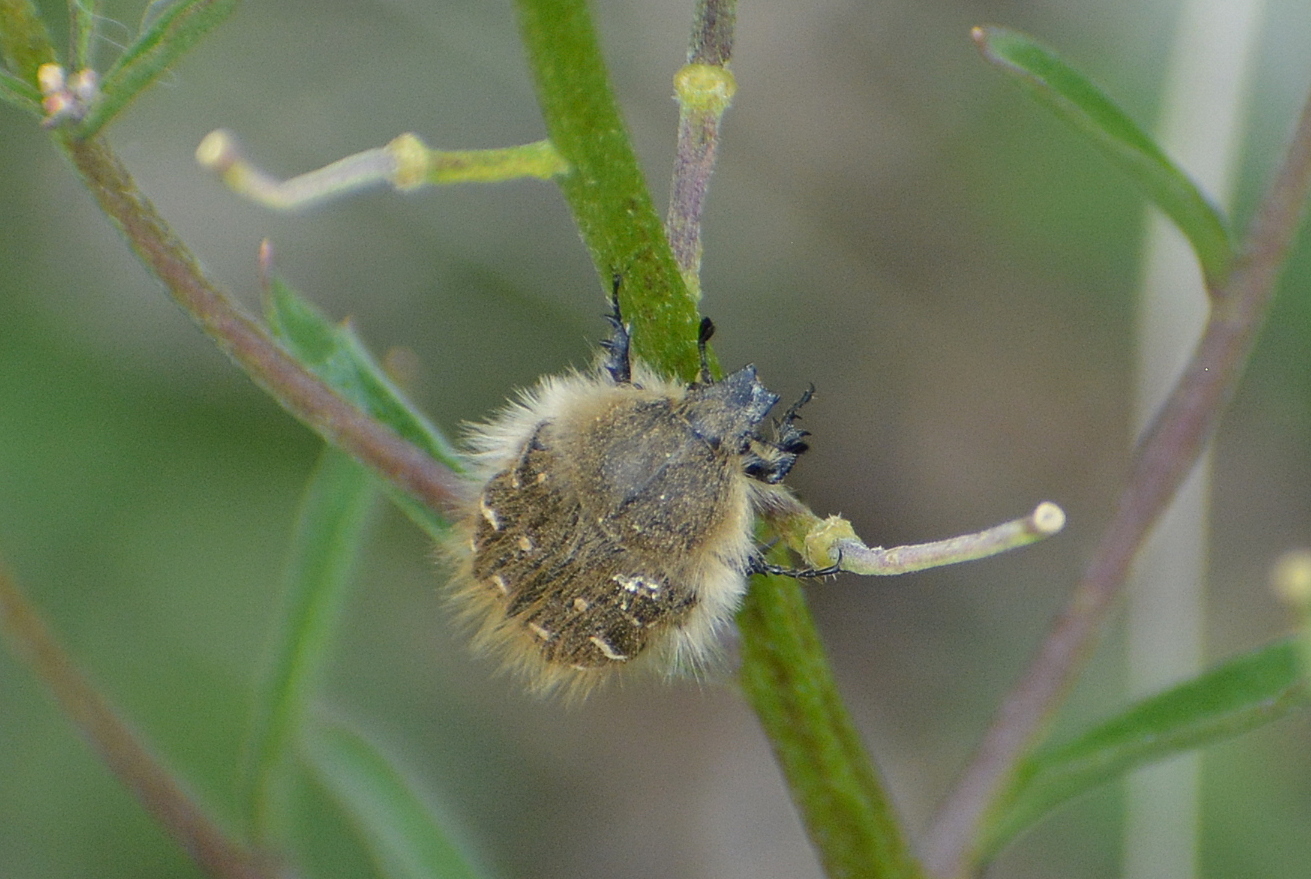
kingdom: Animalia
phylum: Arthropoda
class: Insecta
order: Coleoptera
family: Scarabaeidae
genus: Tropinota
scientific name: Tropinota hirta
